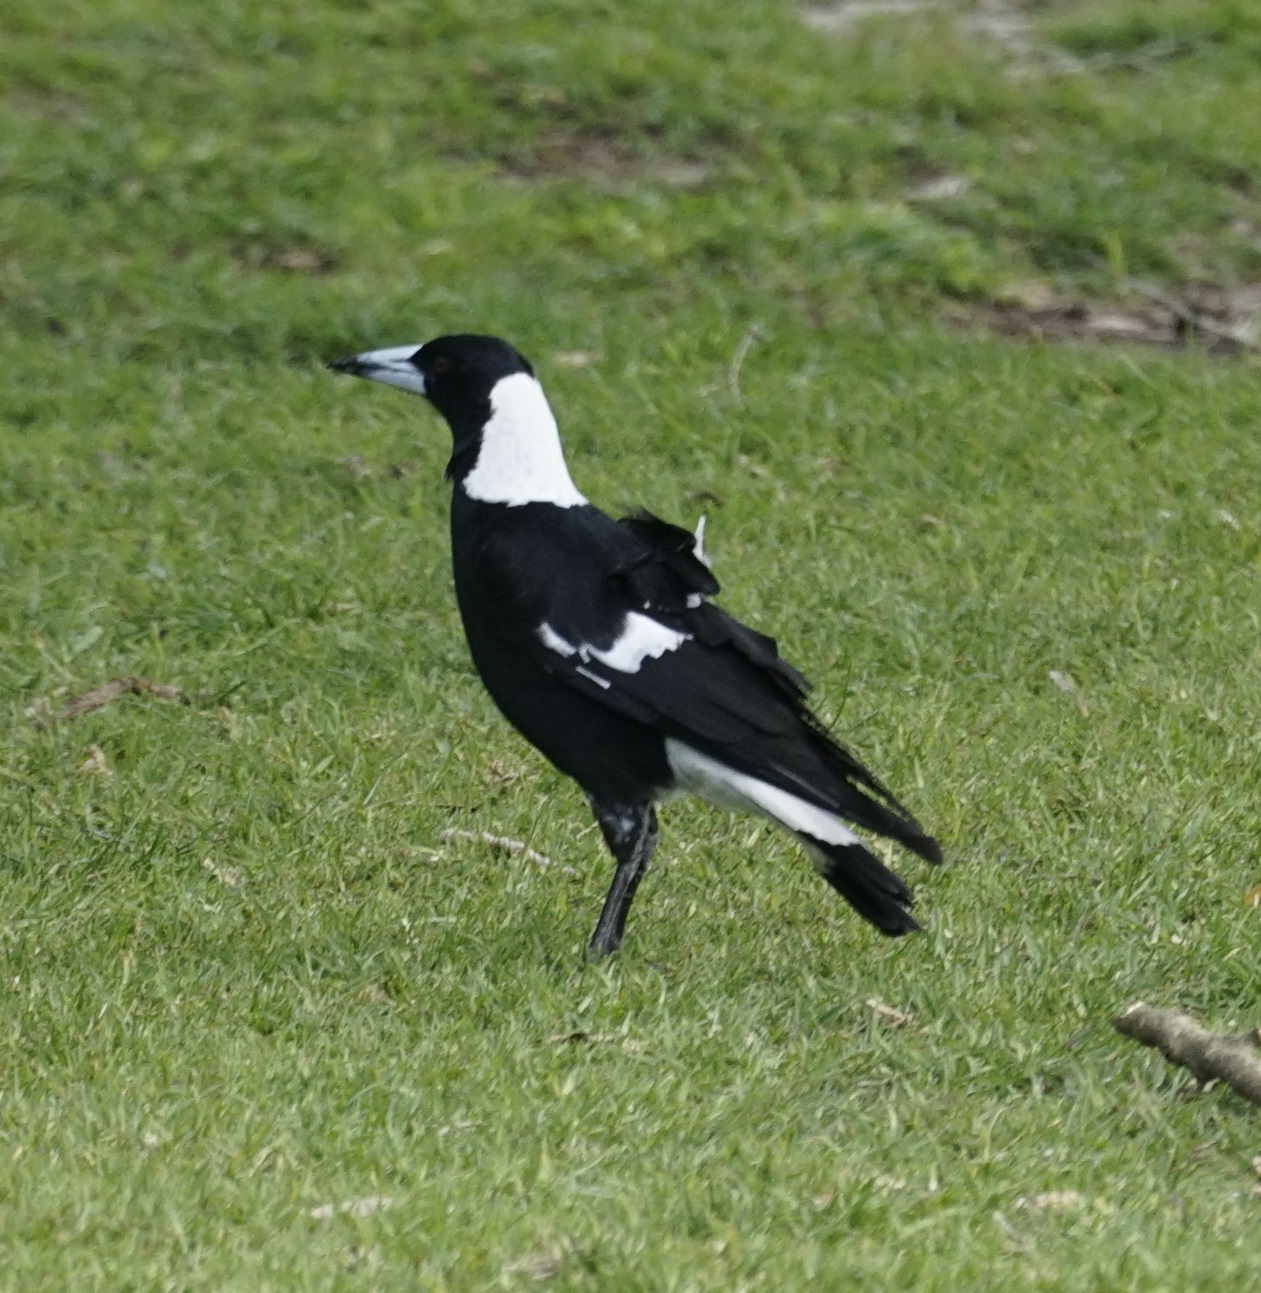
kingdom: Animalia
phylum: Chordata
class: Aves
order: Passeriformes
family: Cracticidae
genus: Gymnorhina
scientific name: Gymnorhina tibicen
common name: Australian magpie
